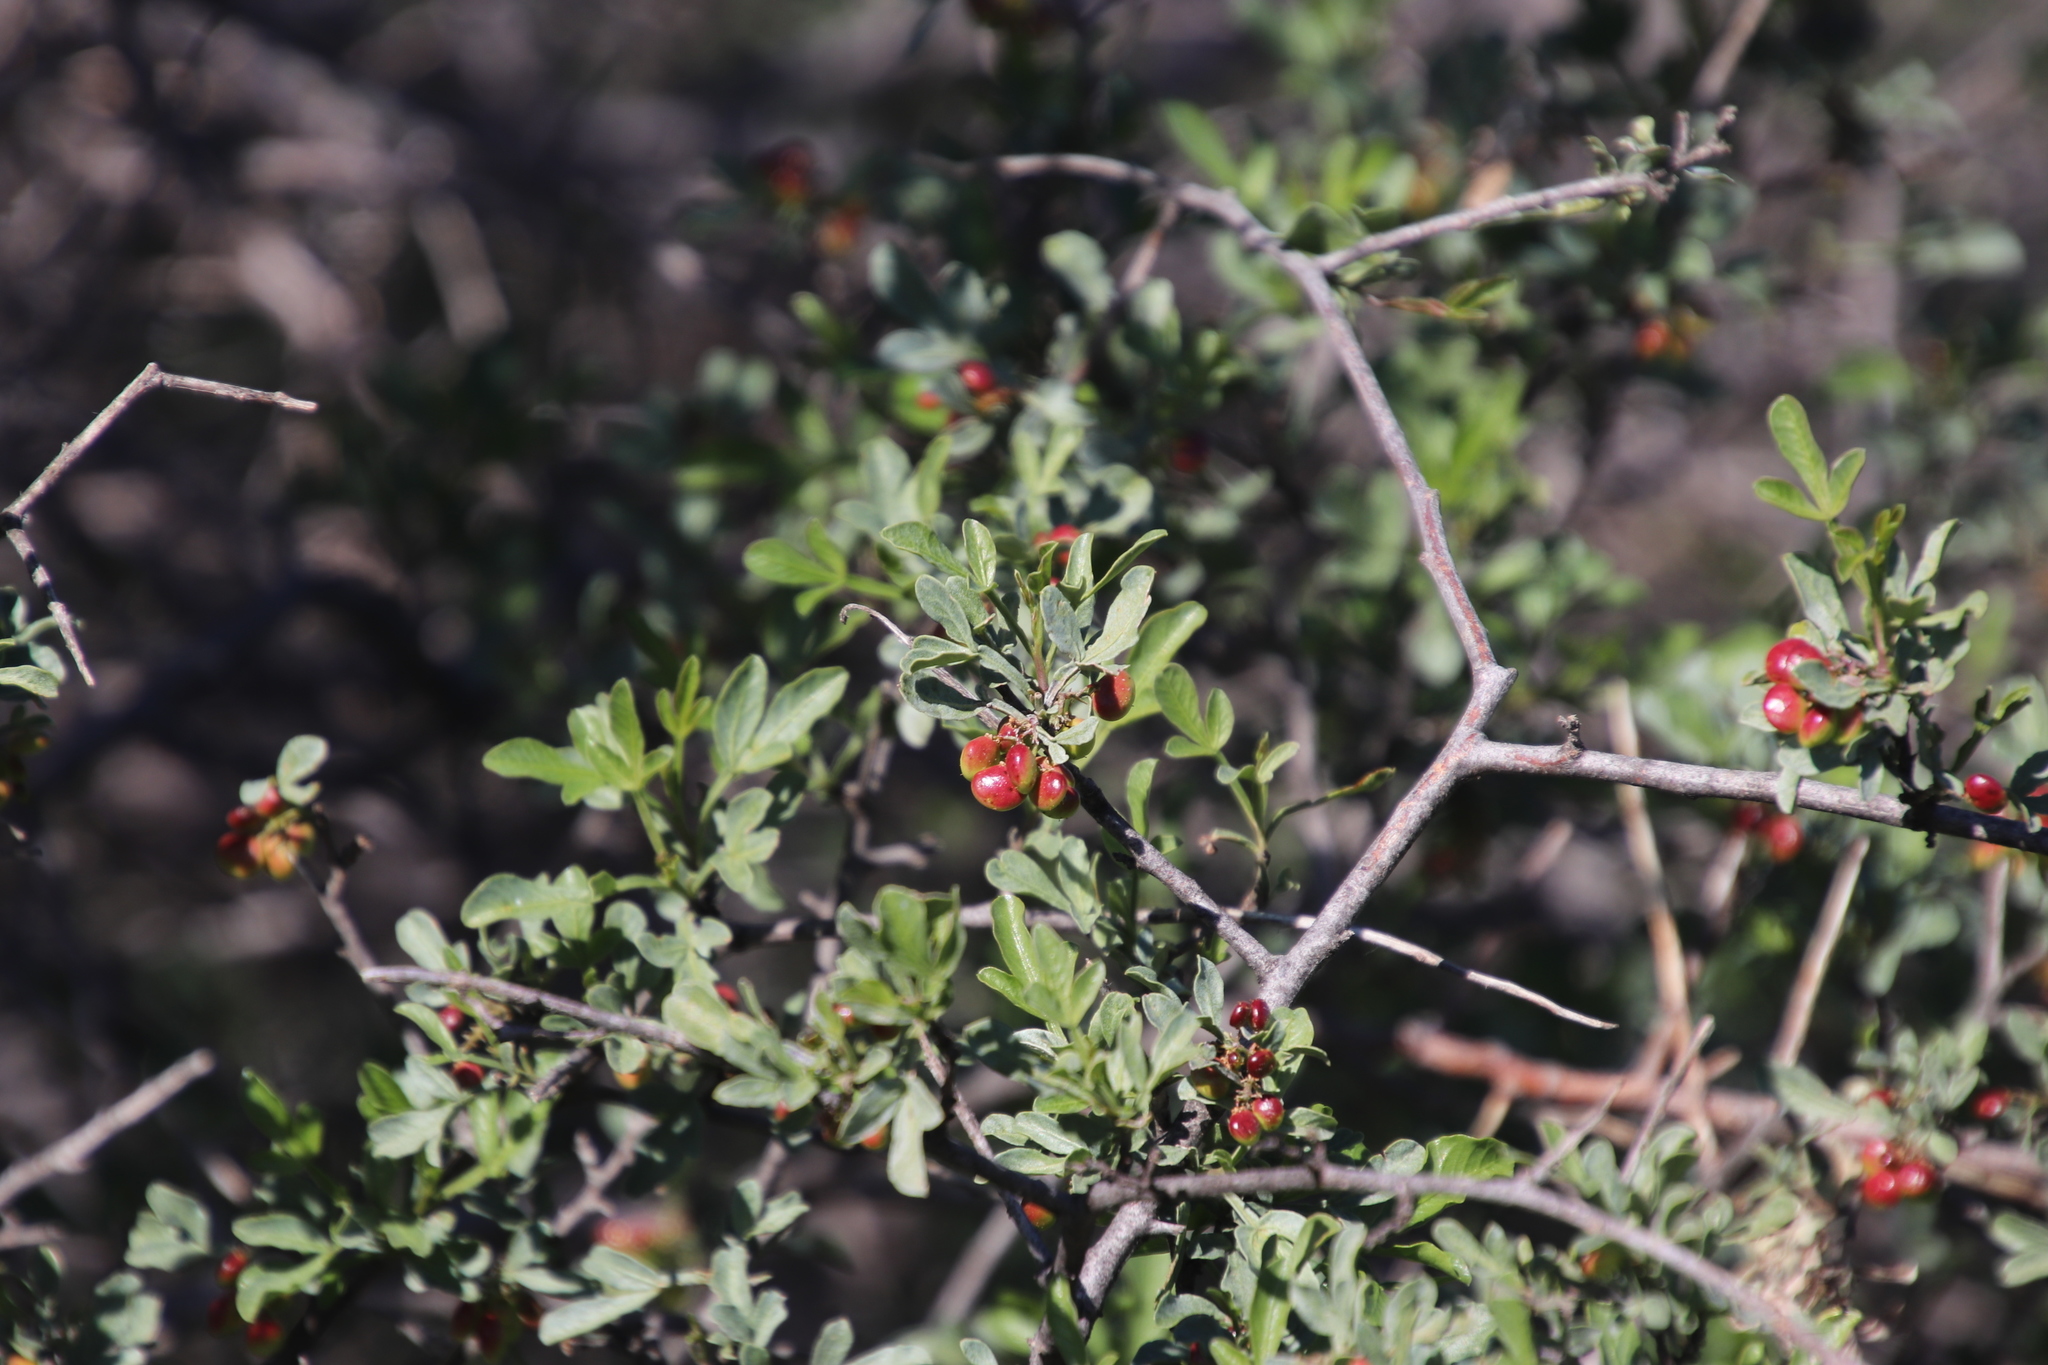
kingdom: Plantae
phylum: Tracheophyta
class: Magnoliopsida
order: Sapindales
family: Anacardiaceae
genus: Searsia
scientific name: Searsia undulata
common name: Namaqua kunibush
